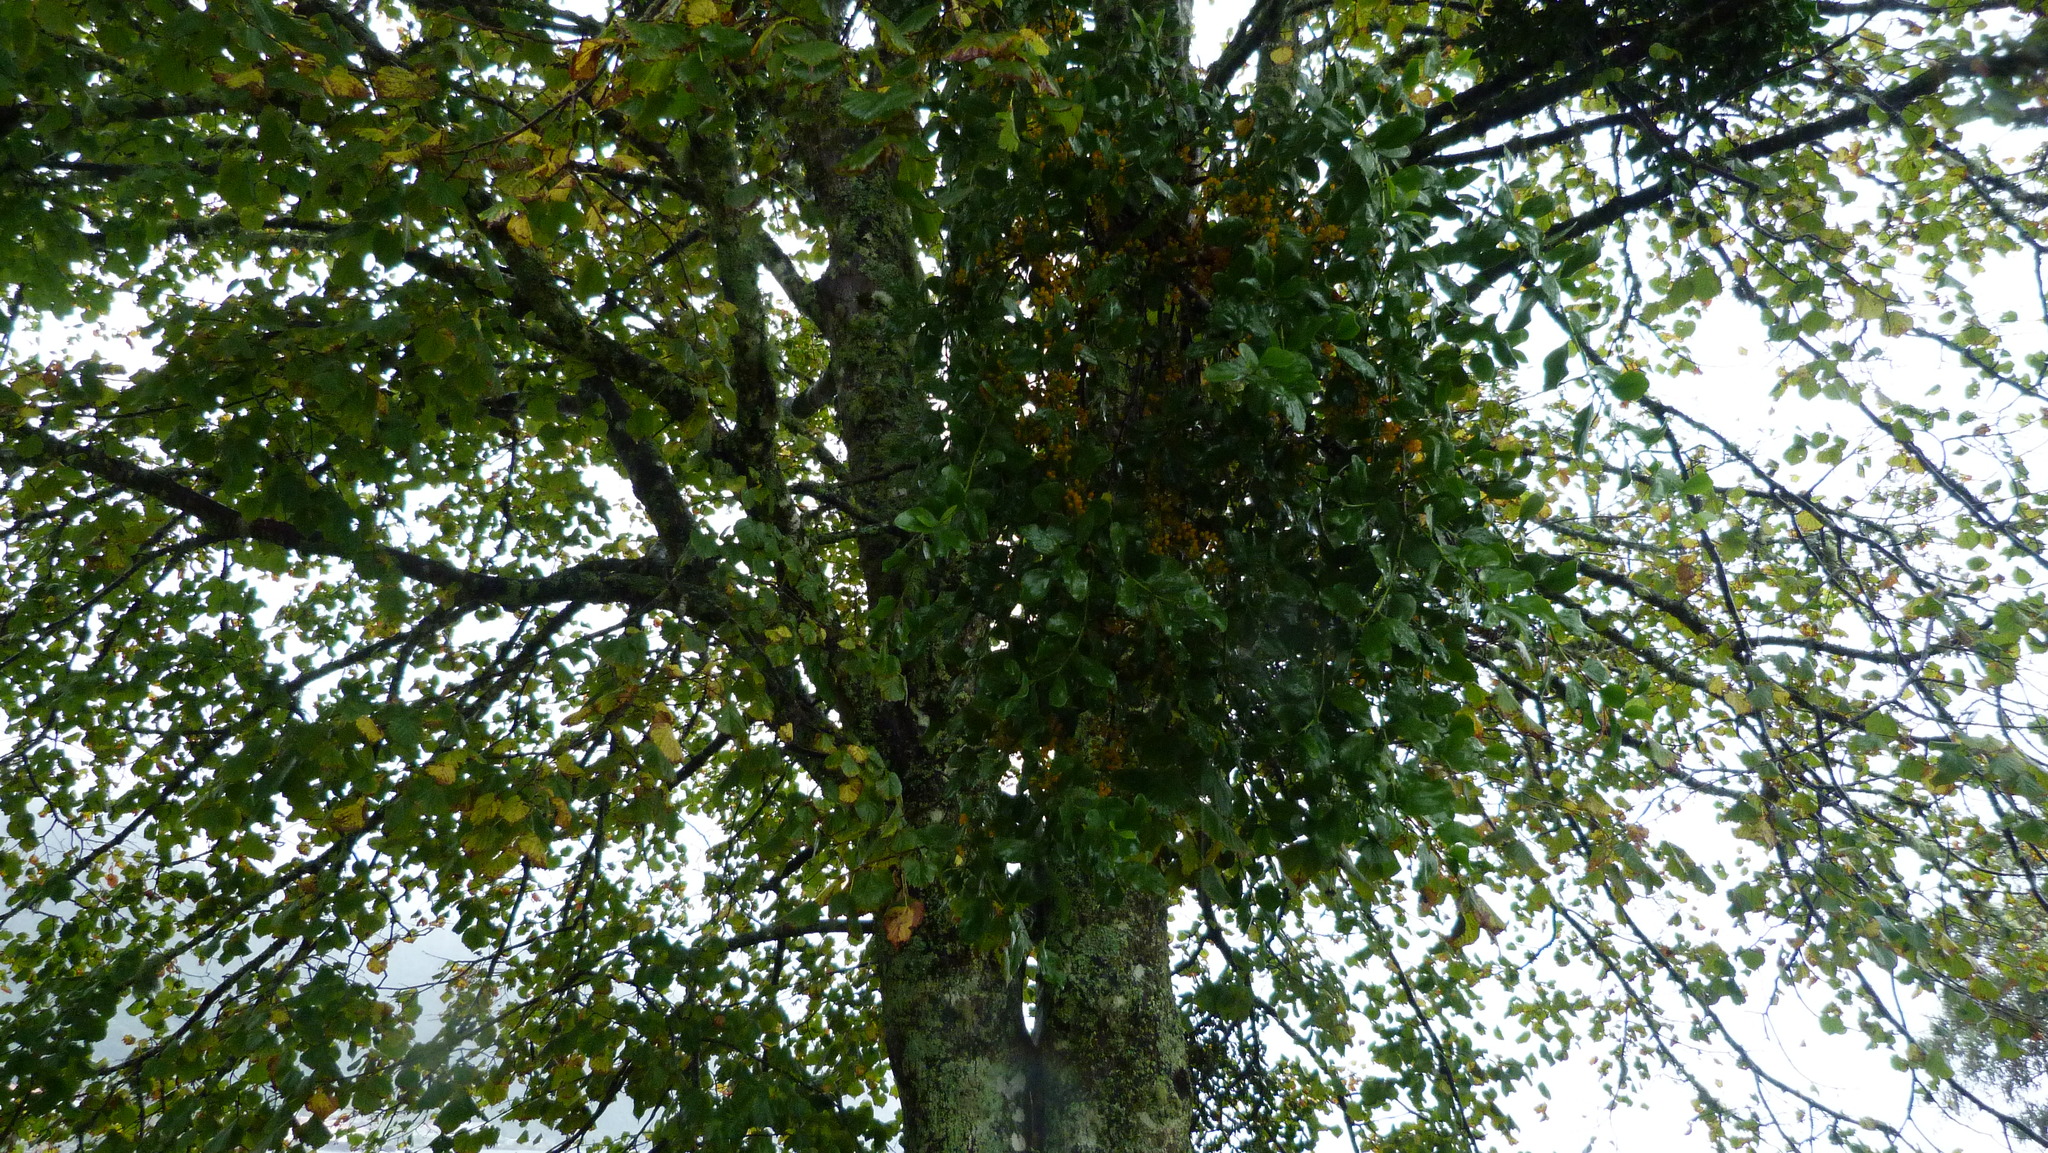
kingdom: Plantae
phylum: Tracheophyta
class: Magnoliopsida
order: Santalales
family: Loranthaceae
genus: Ileostylus
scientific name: Ileostylus micranthus
